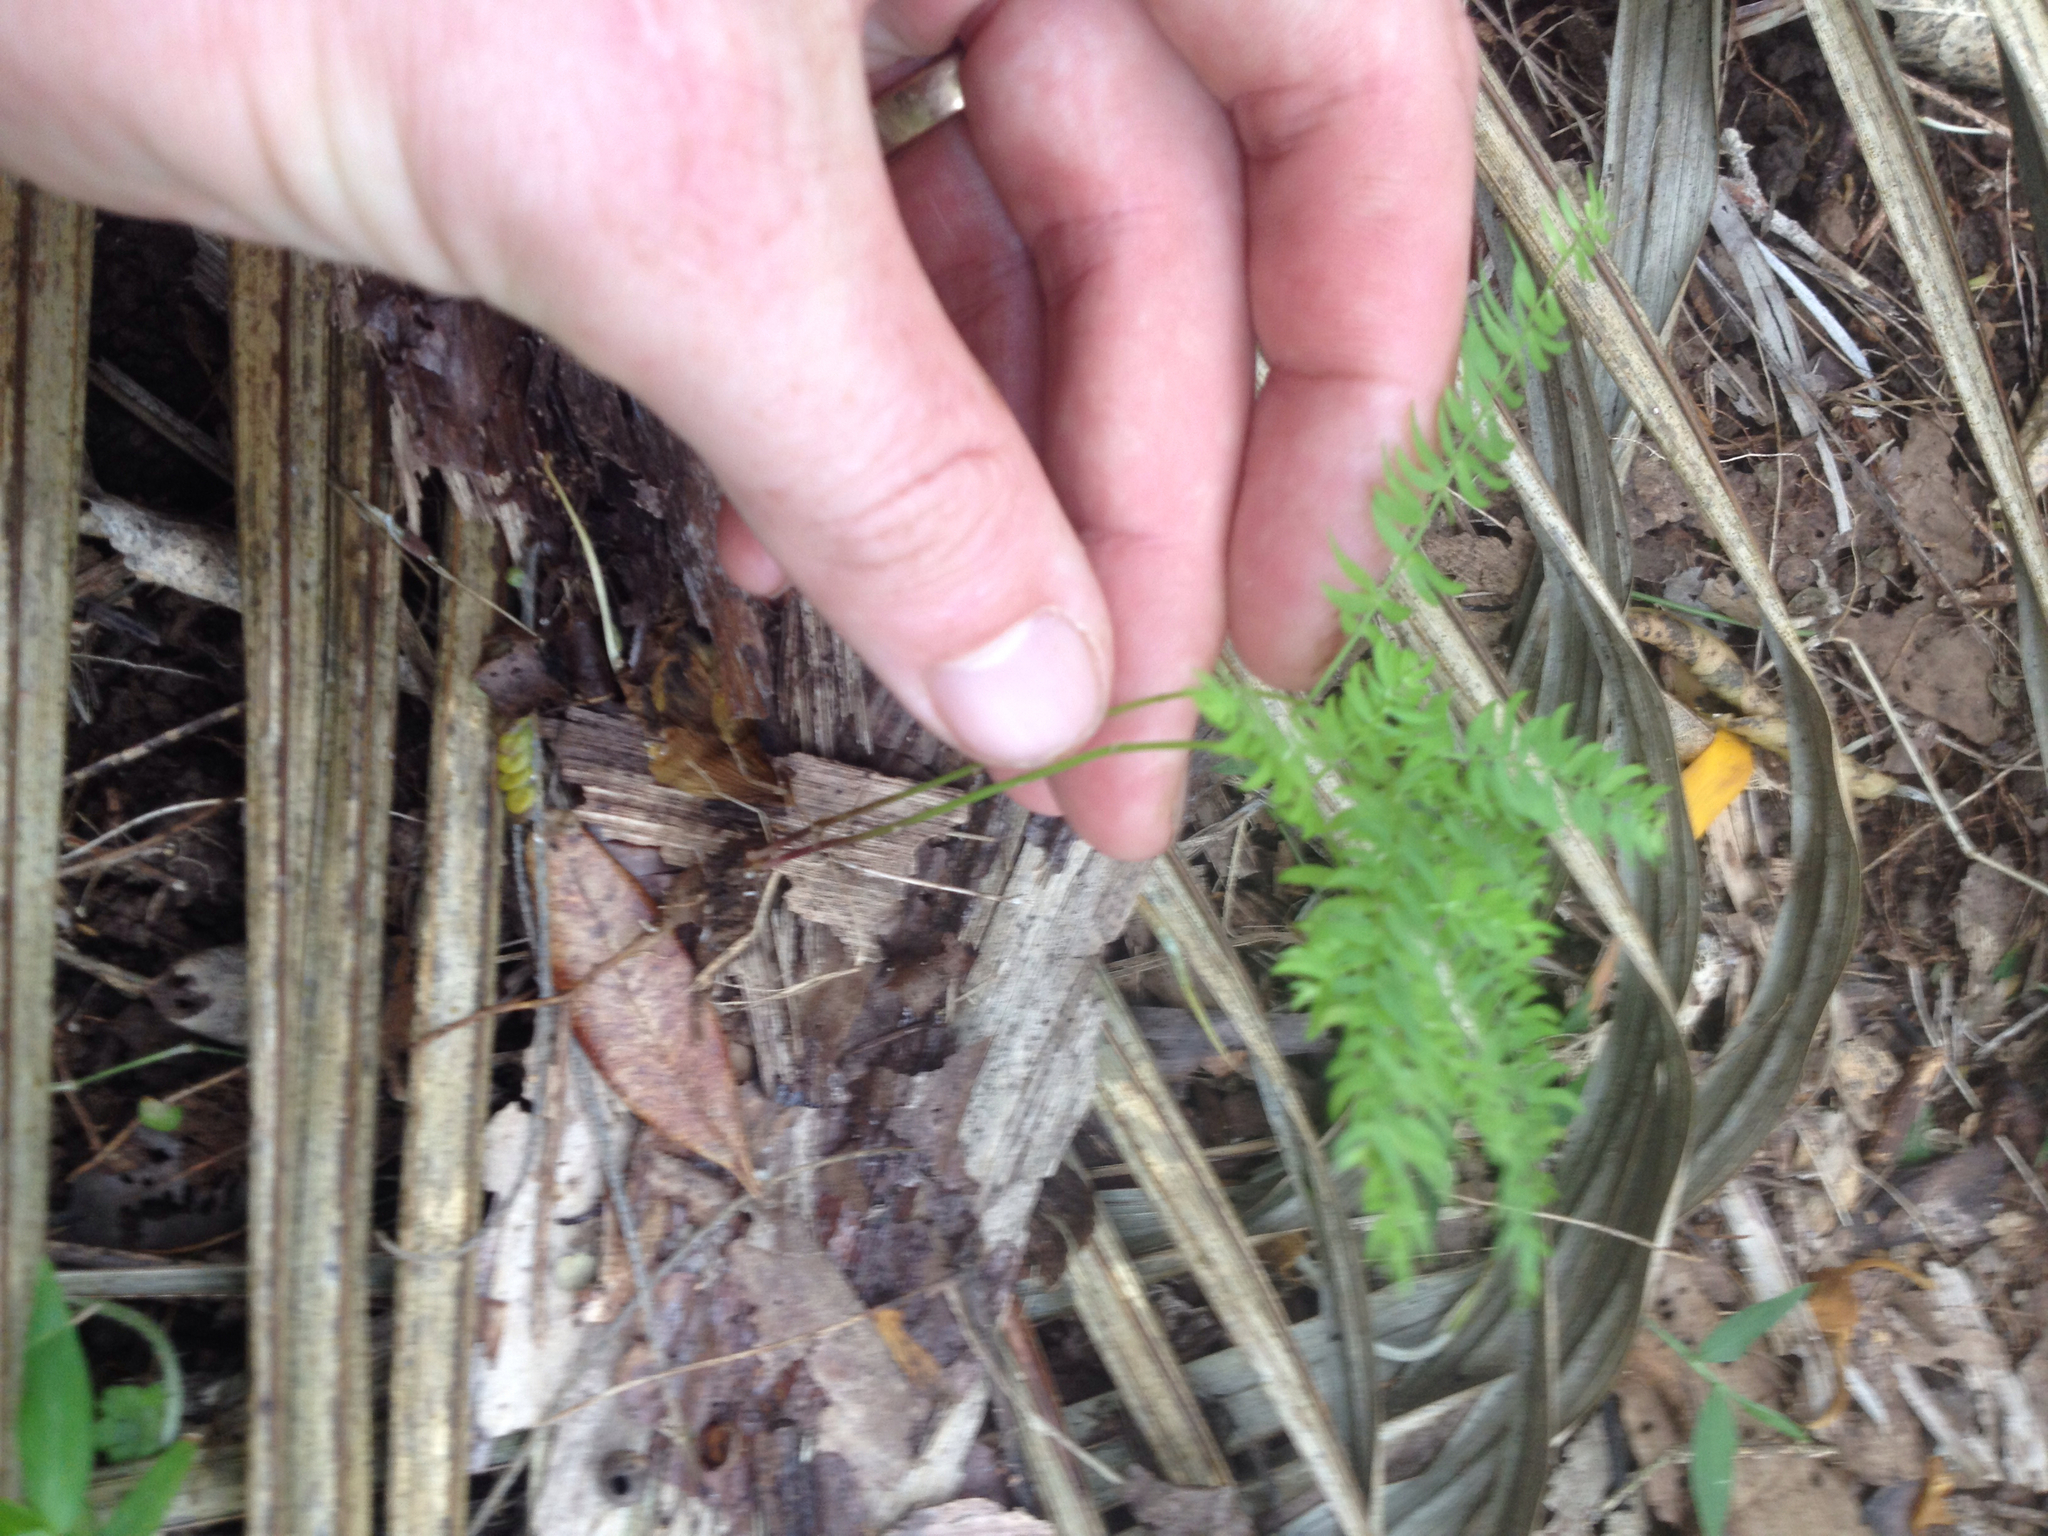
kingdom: Plantae
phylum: Tracheophyta
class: Liliopsida
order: Asparagales
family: Asparagaceae
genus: Asparagus
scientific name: Asparagus scandens
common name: Asparagus-fern
